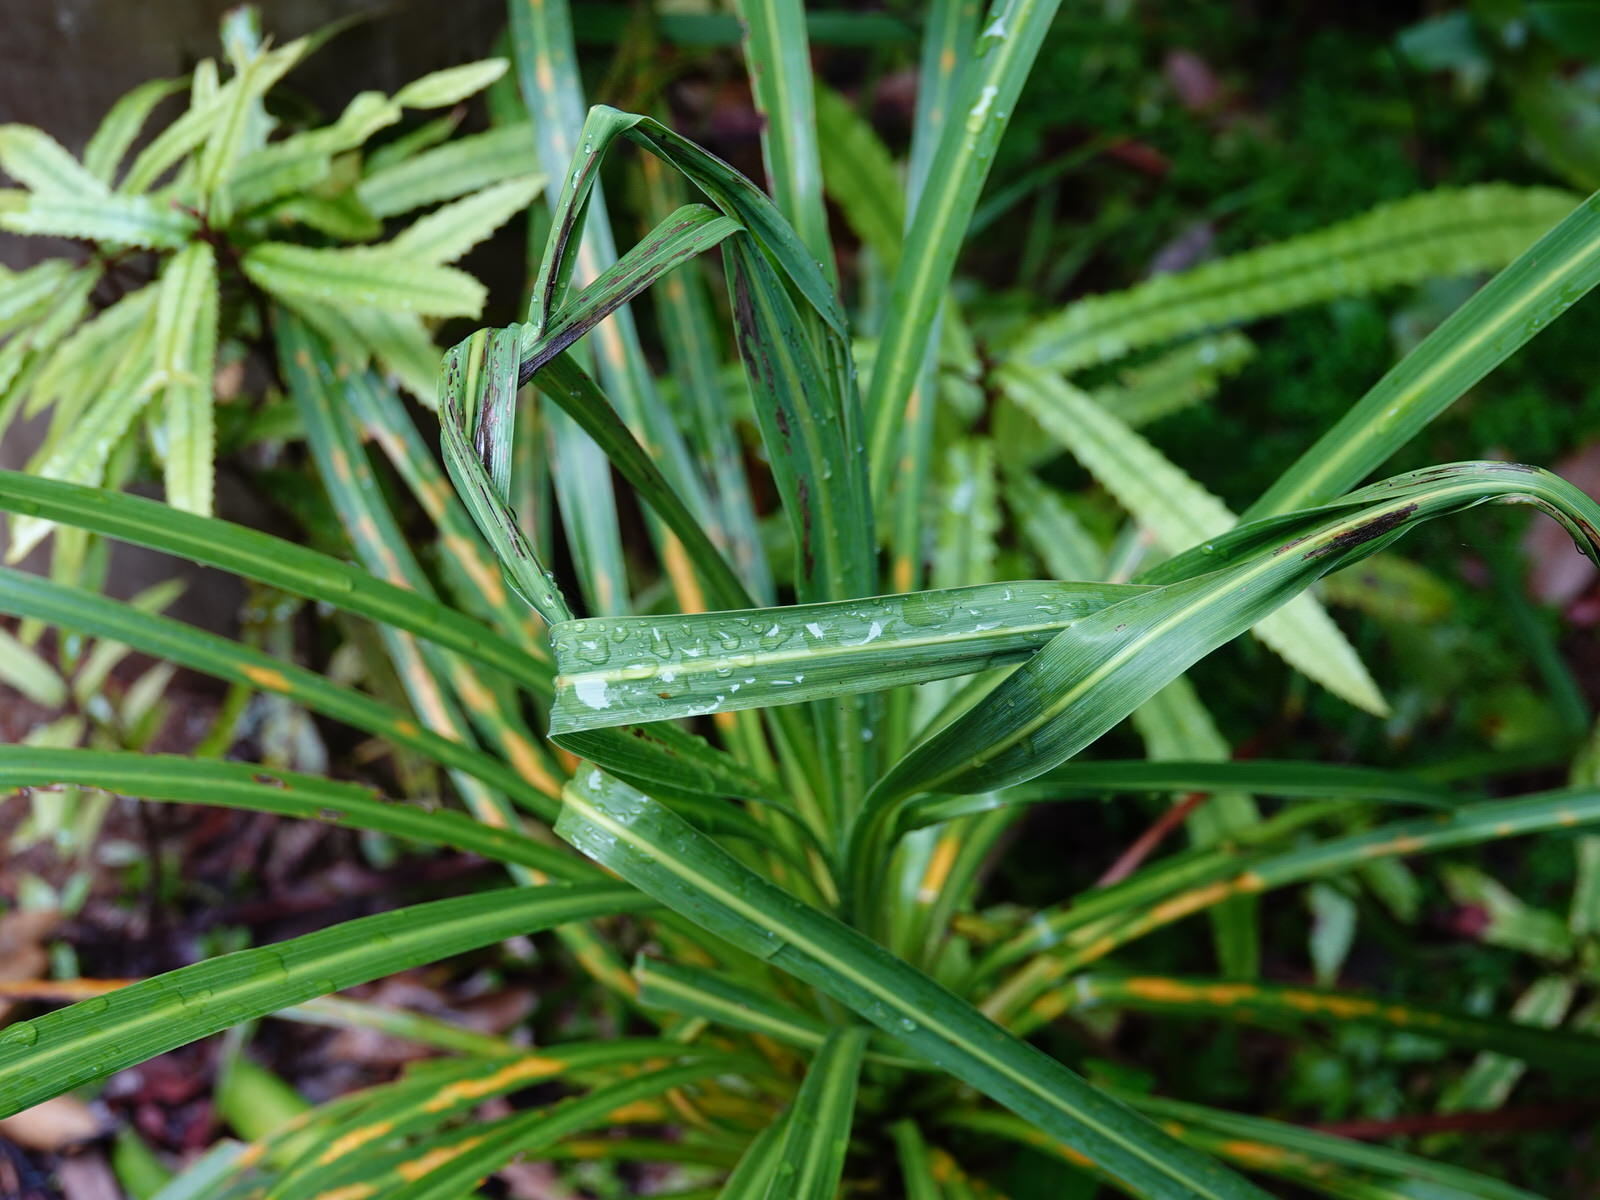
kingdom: Plantae
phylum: Tracheophyta
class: Liliopsida
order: Asparagales
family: Asparagaceae
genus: Cordyline
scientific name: Cordyline banksii
